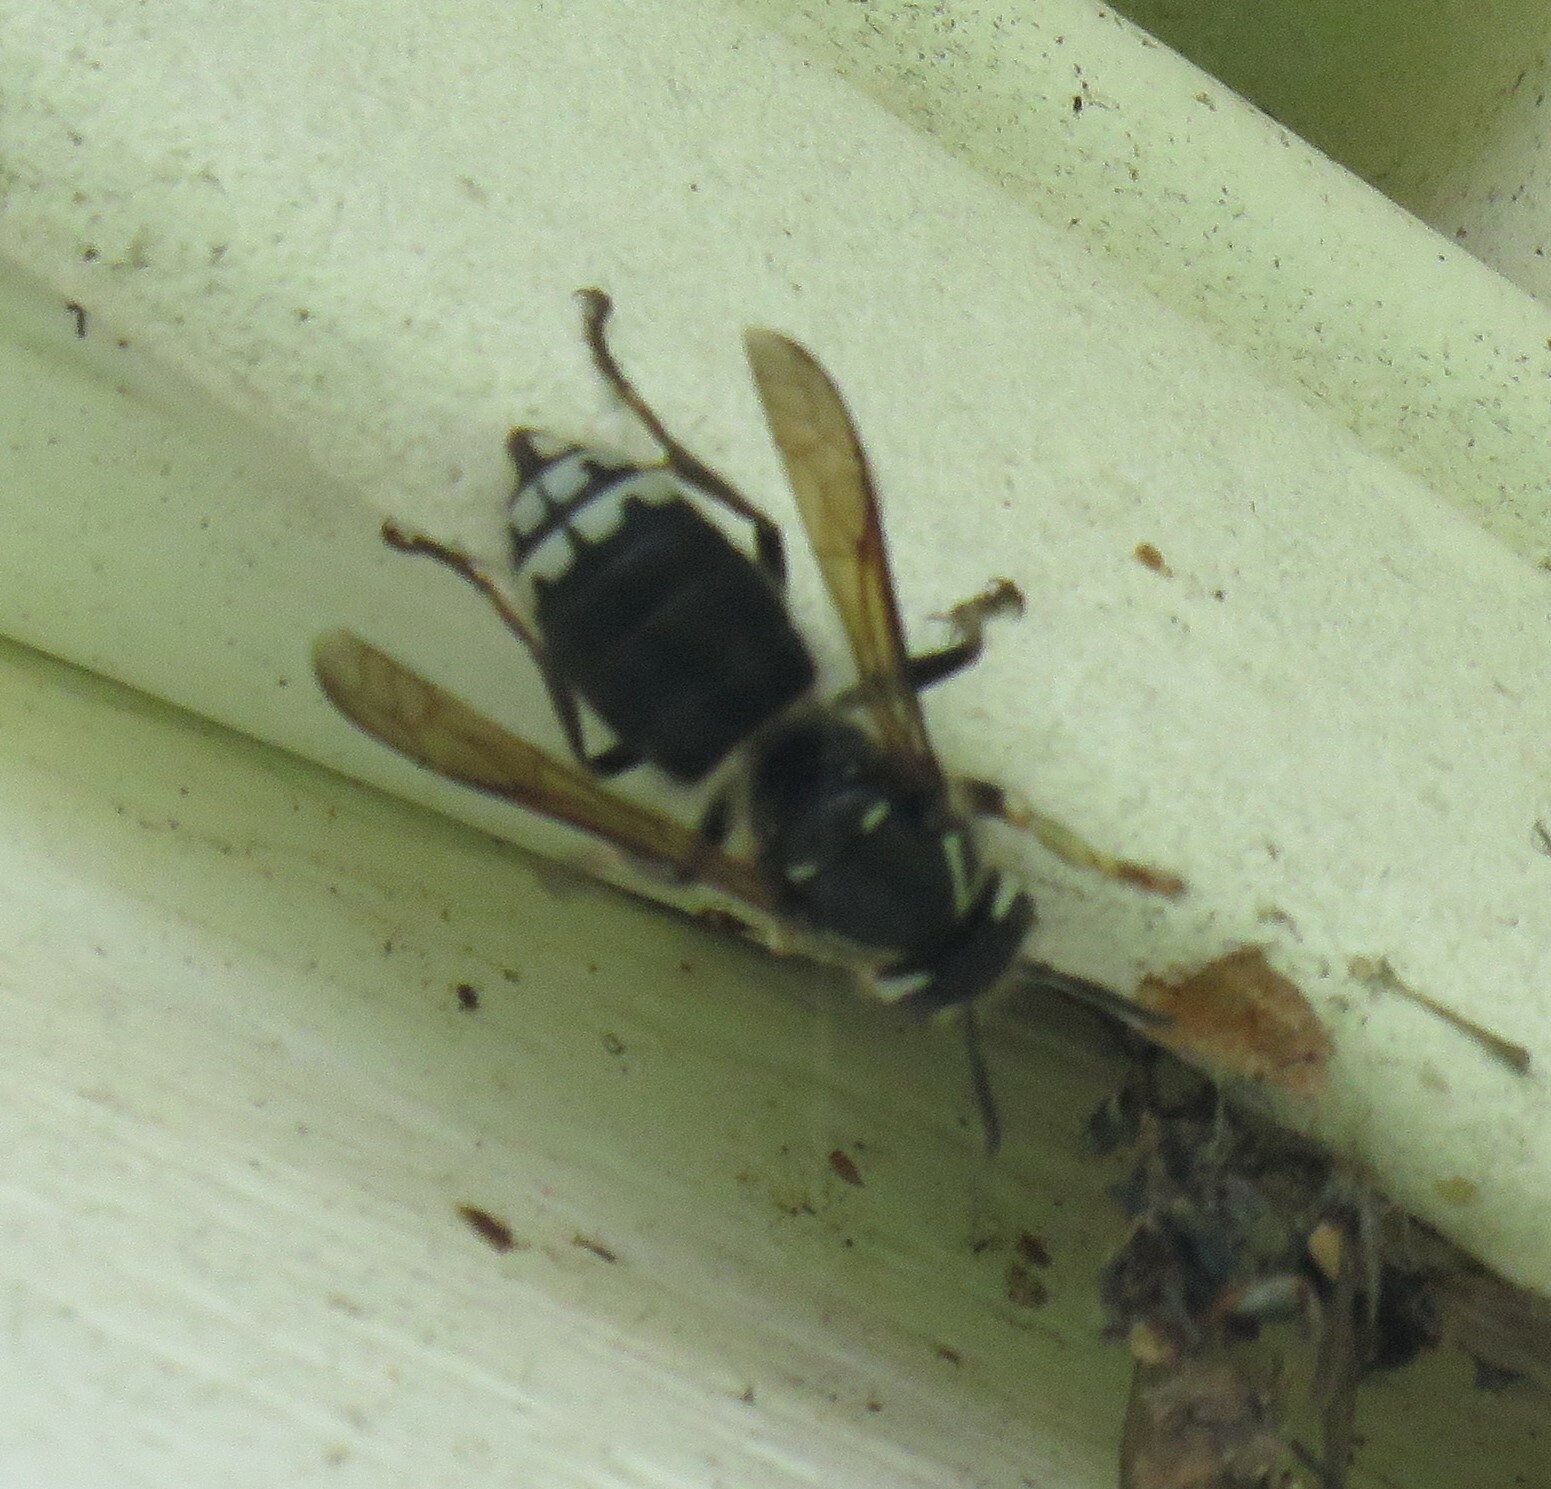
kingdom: Animalia
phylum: Arthropoda
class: Insecta
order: Hymenoptera
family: Vespidae
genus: Dolichovespula
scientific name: Dolichovespula maculata
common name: Bald-faced hornet
